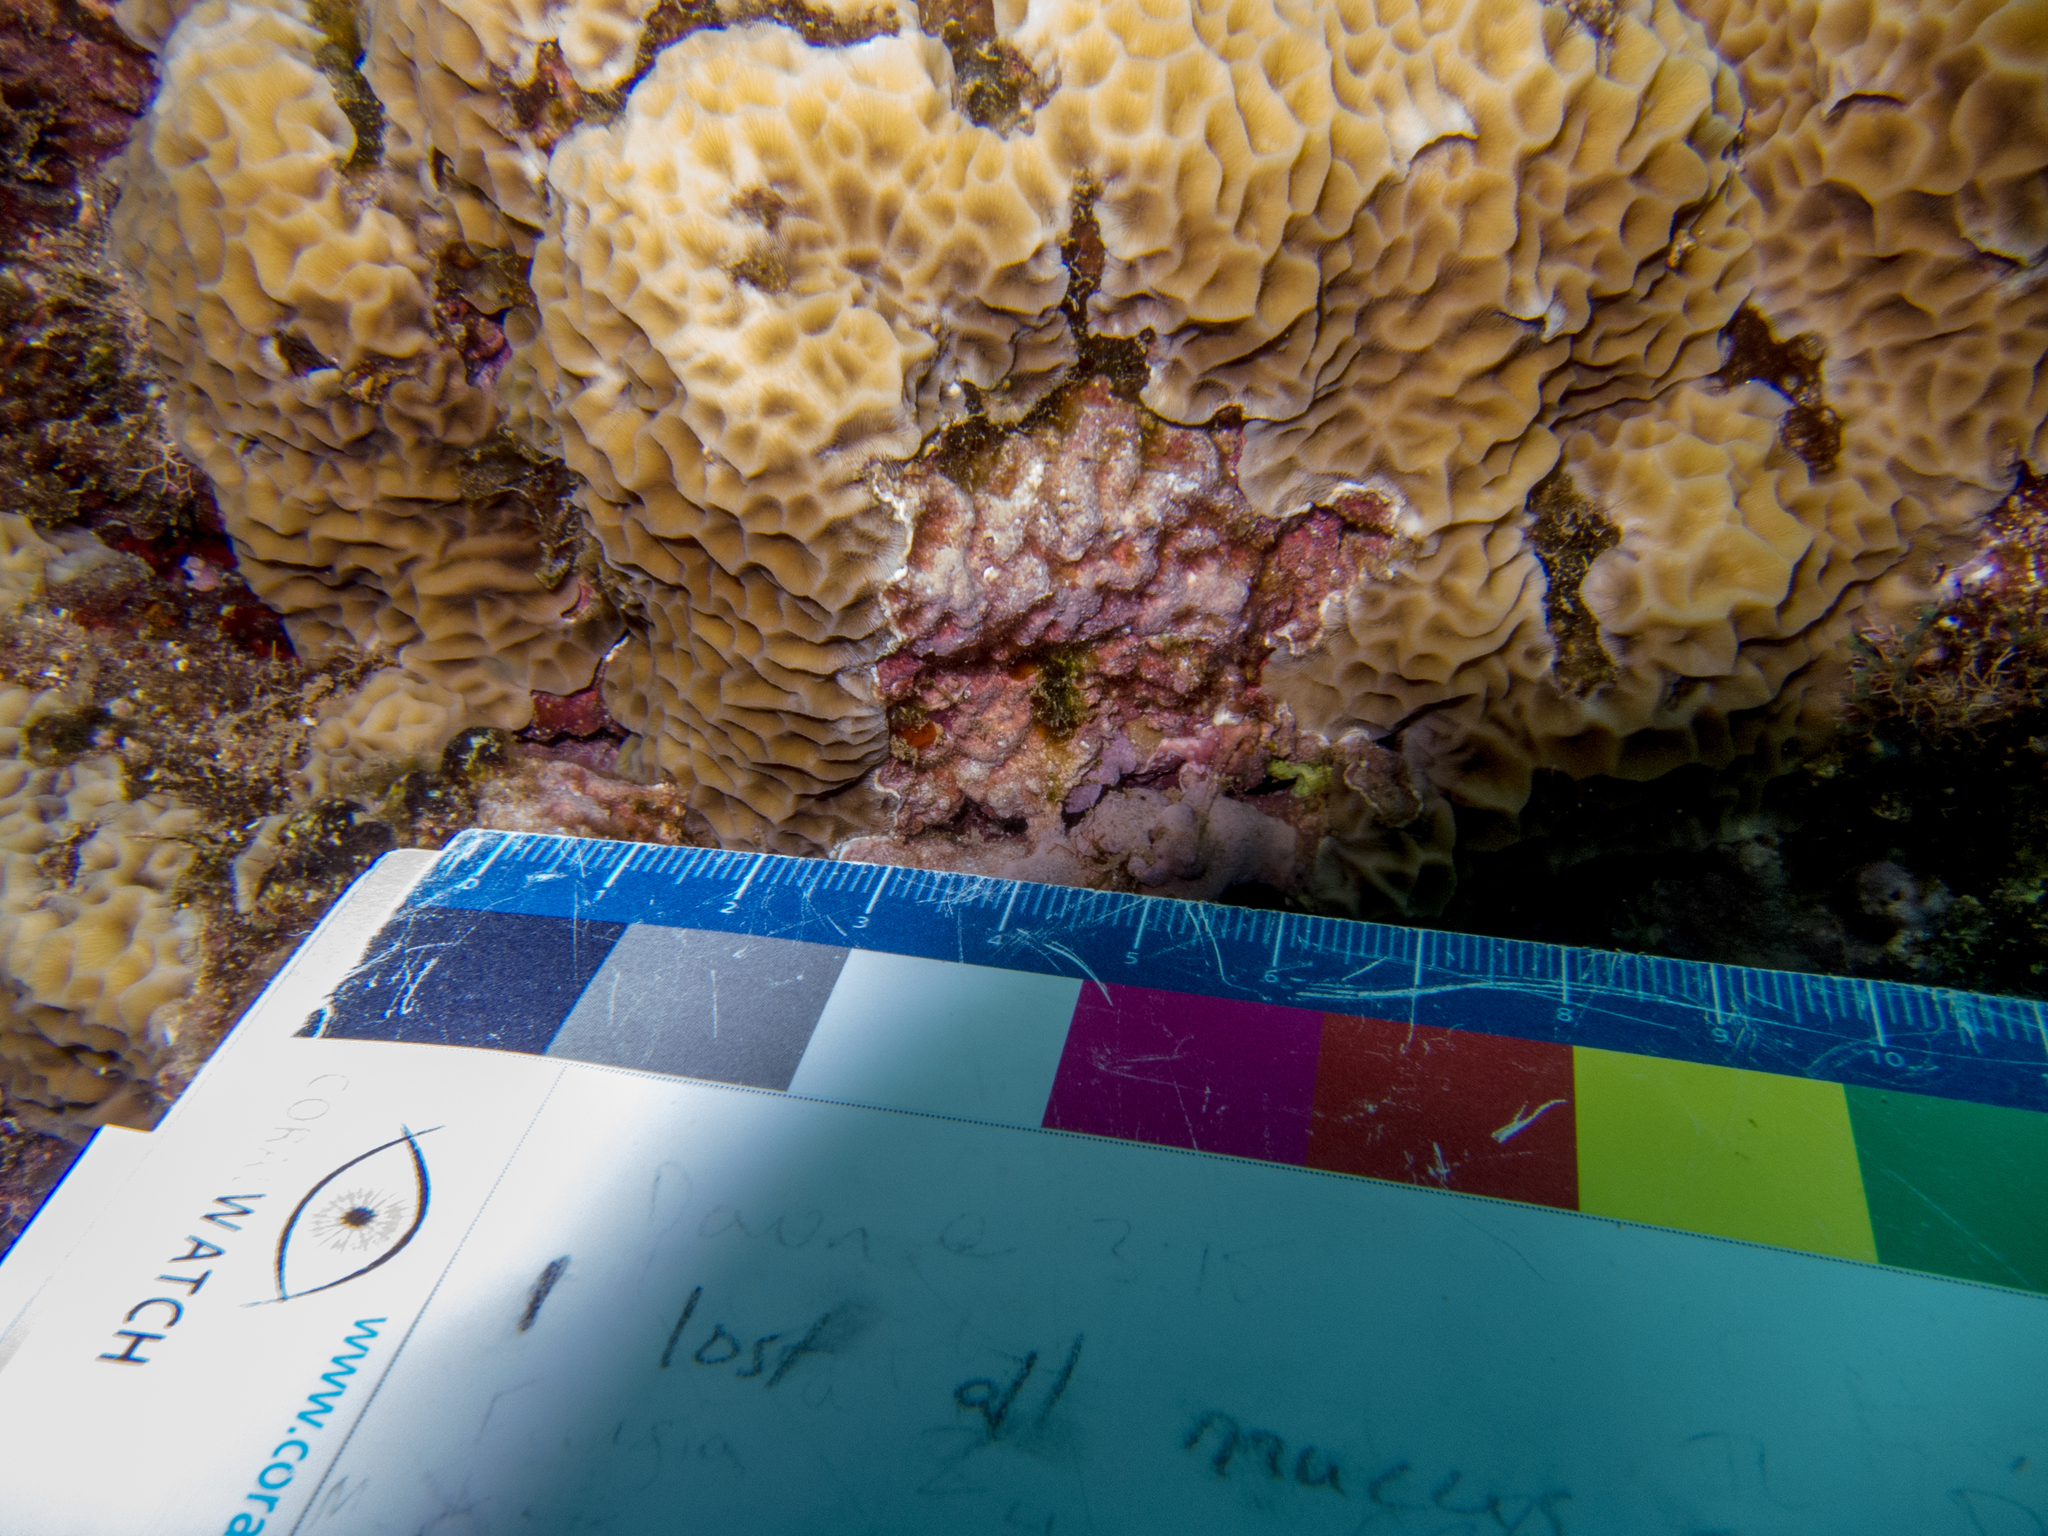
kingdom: Animalia
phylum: Cnidaria
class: Anthozoa
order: Scleractinia
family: Agariciidae
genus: Gardineroseris
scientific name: Gardineroseris planulata
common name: Gardiner's coral
